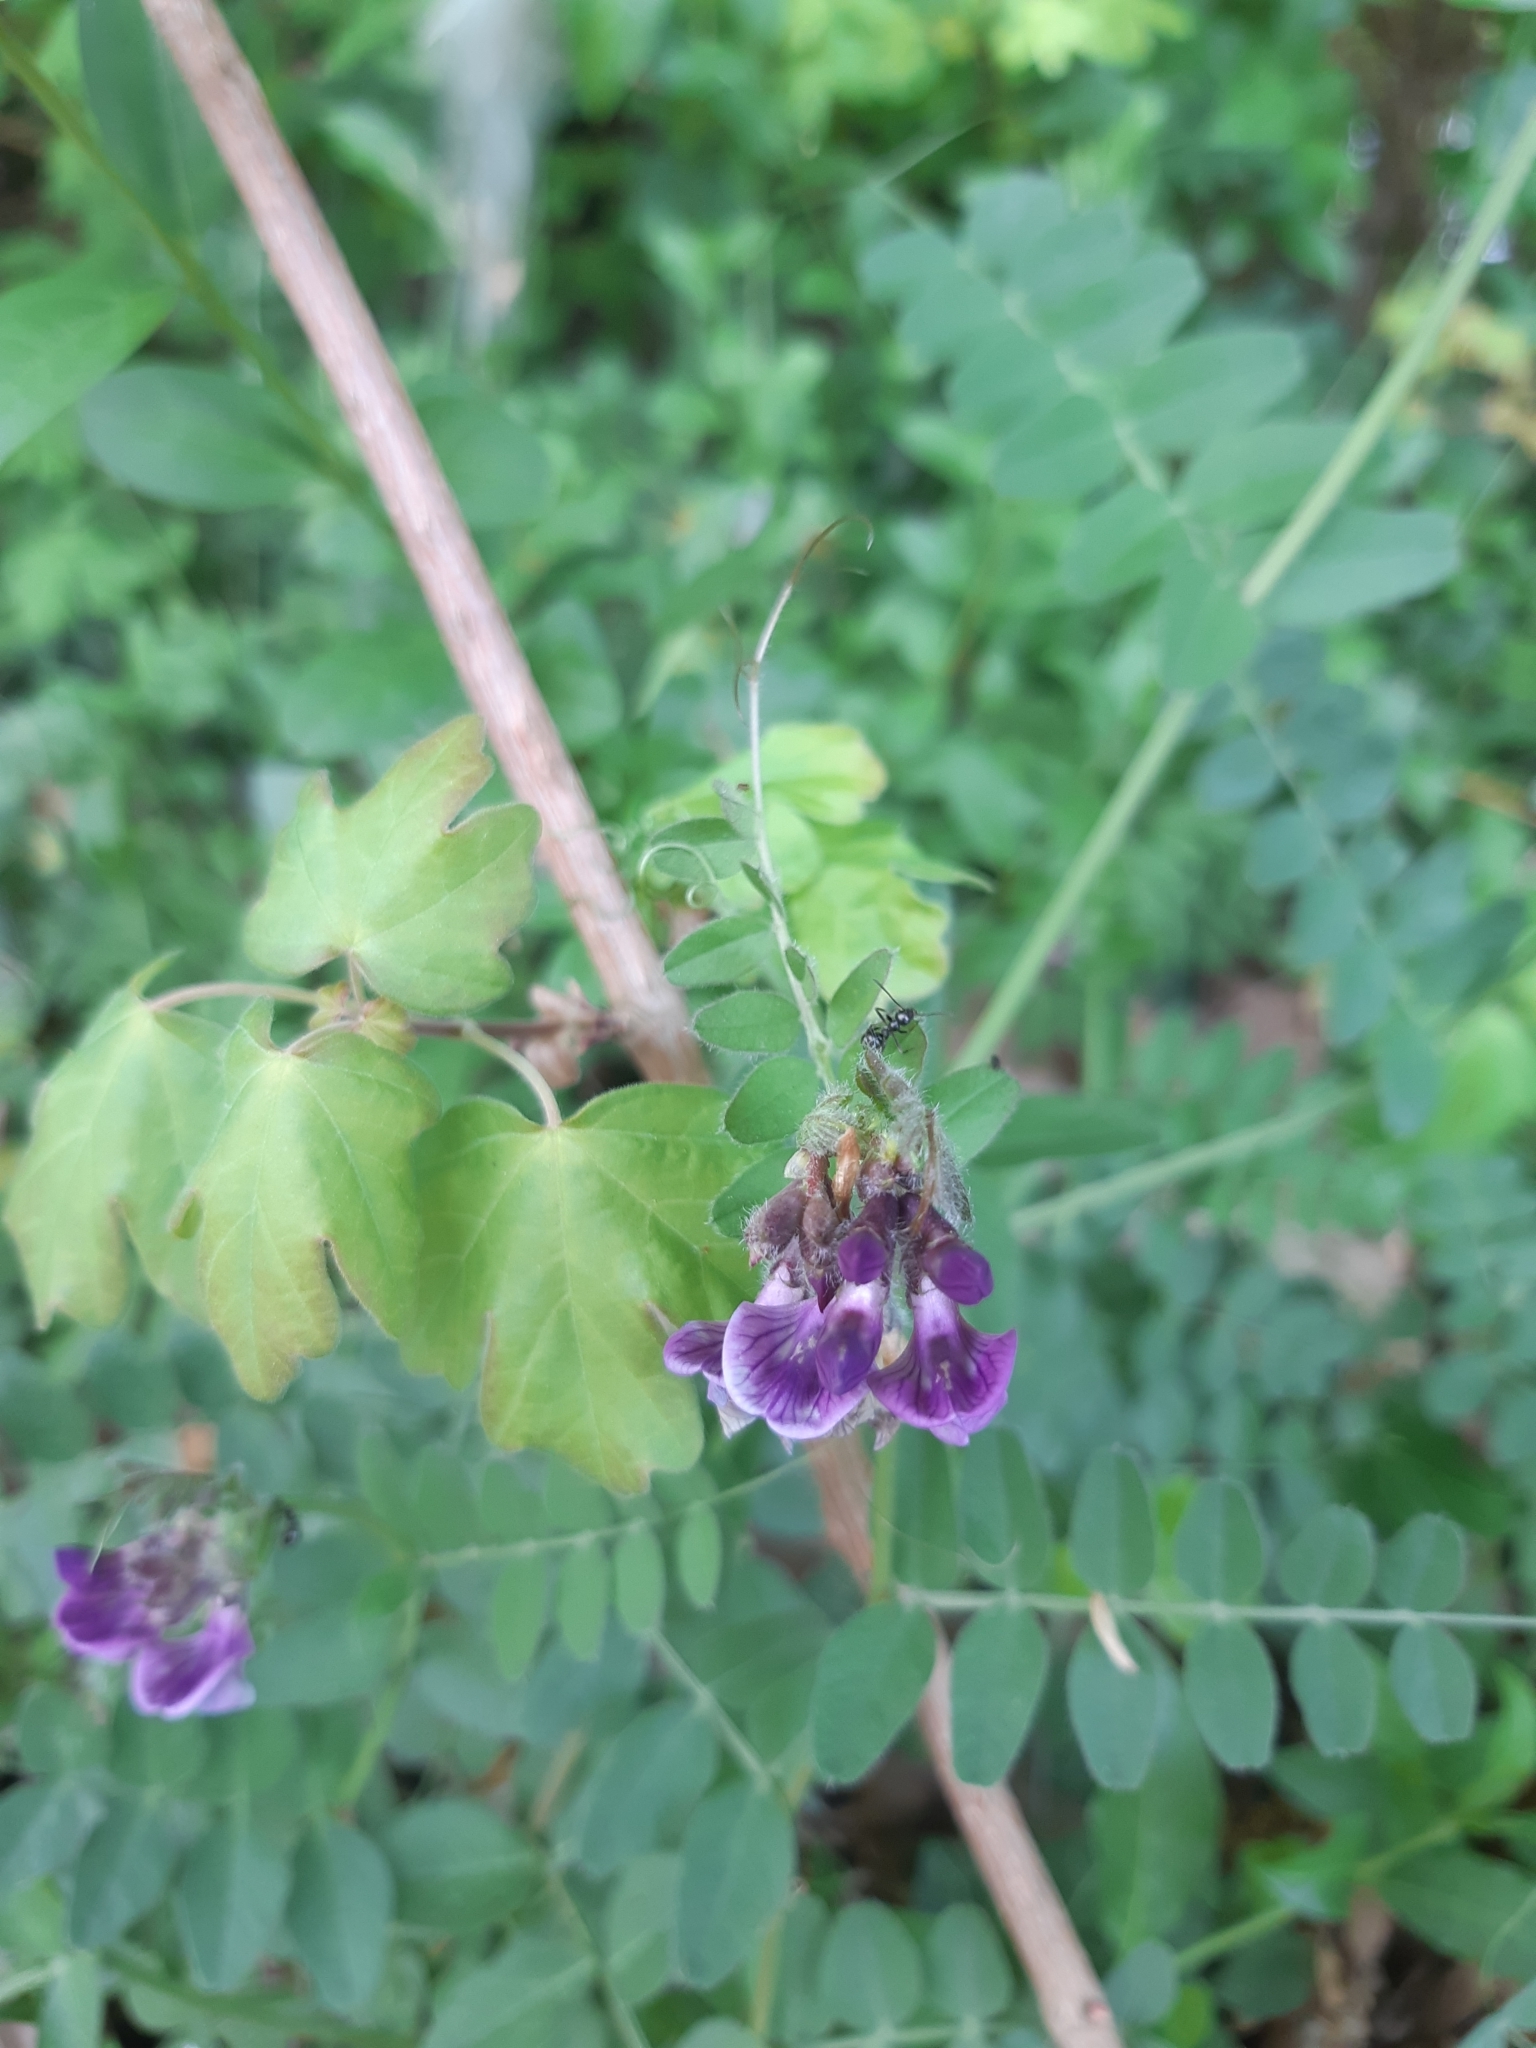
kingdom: Plantae
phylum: Tracheophyta
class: Magnoliopsida
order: Fabales
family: Fabaceae
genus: Vicia
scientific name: Vicia sepium
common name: Bush vetch
